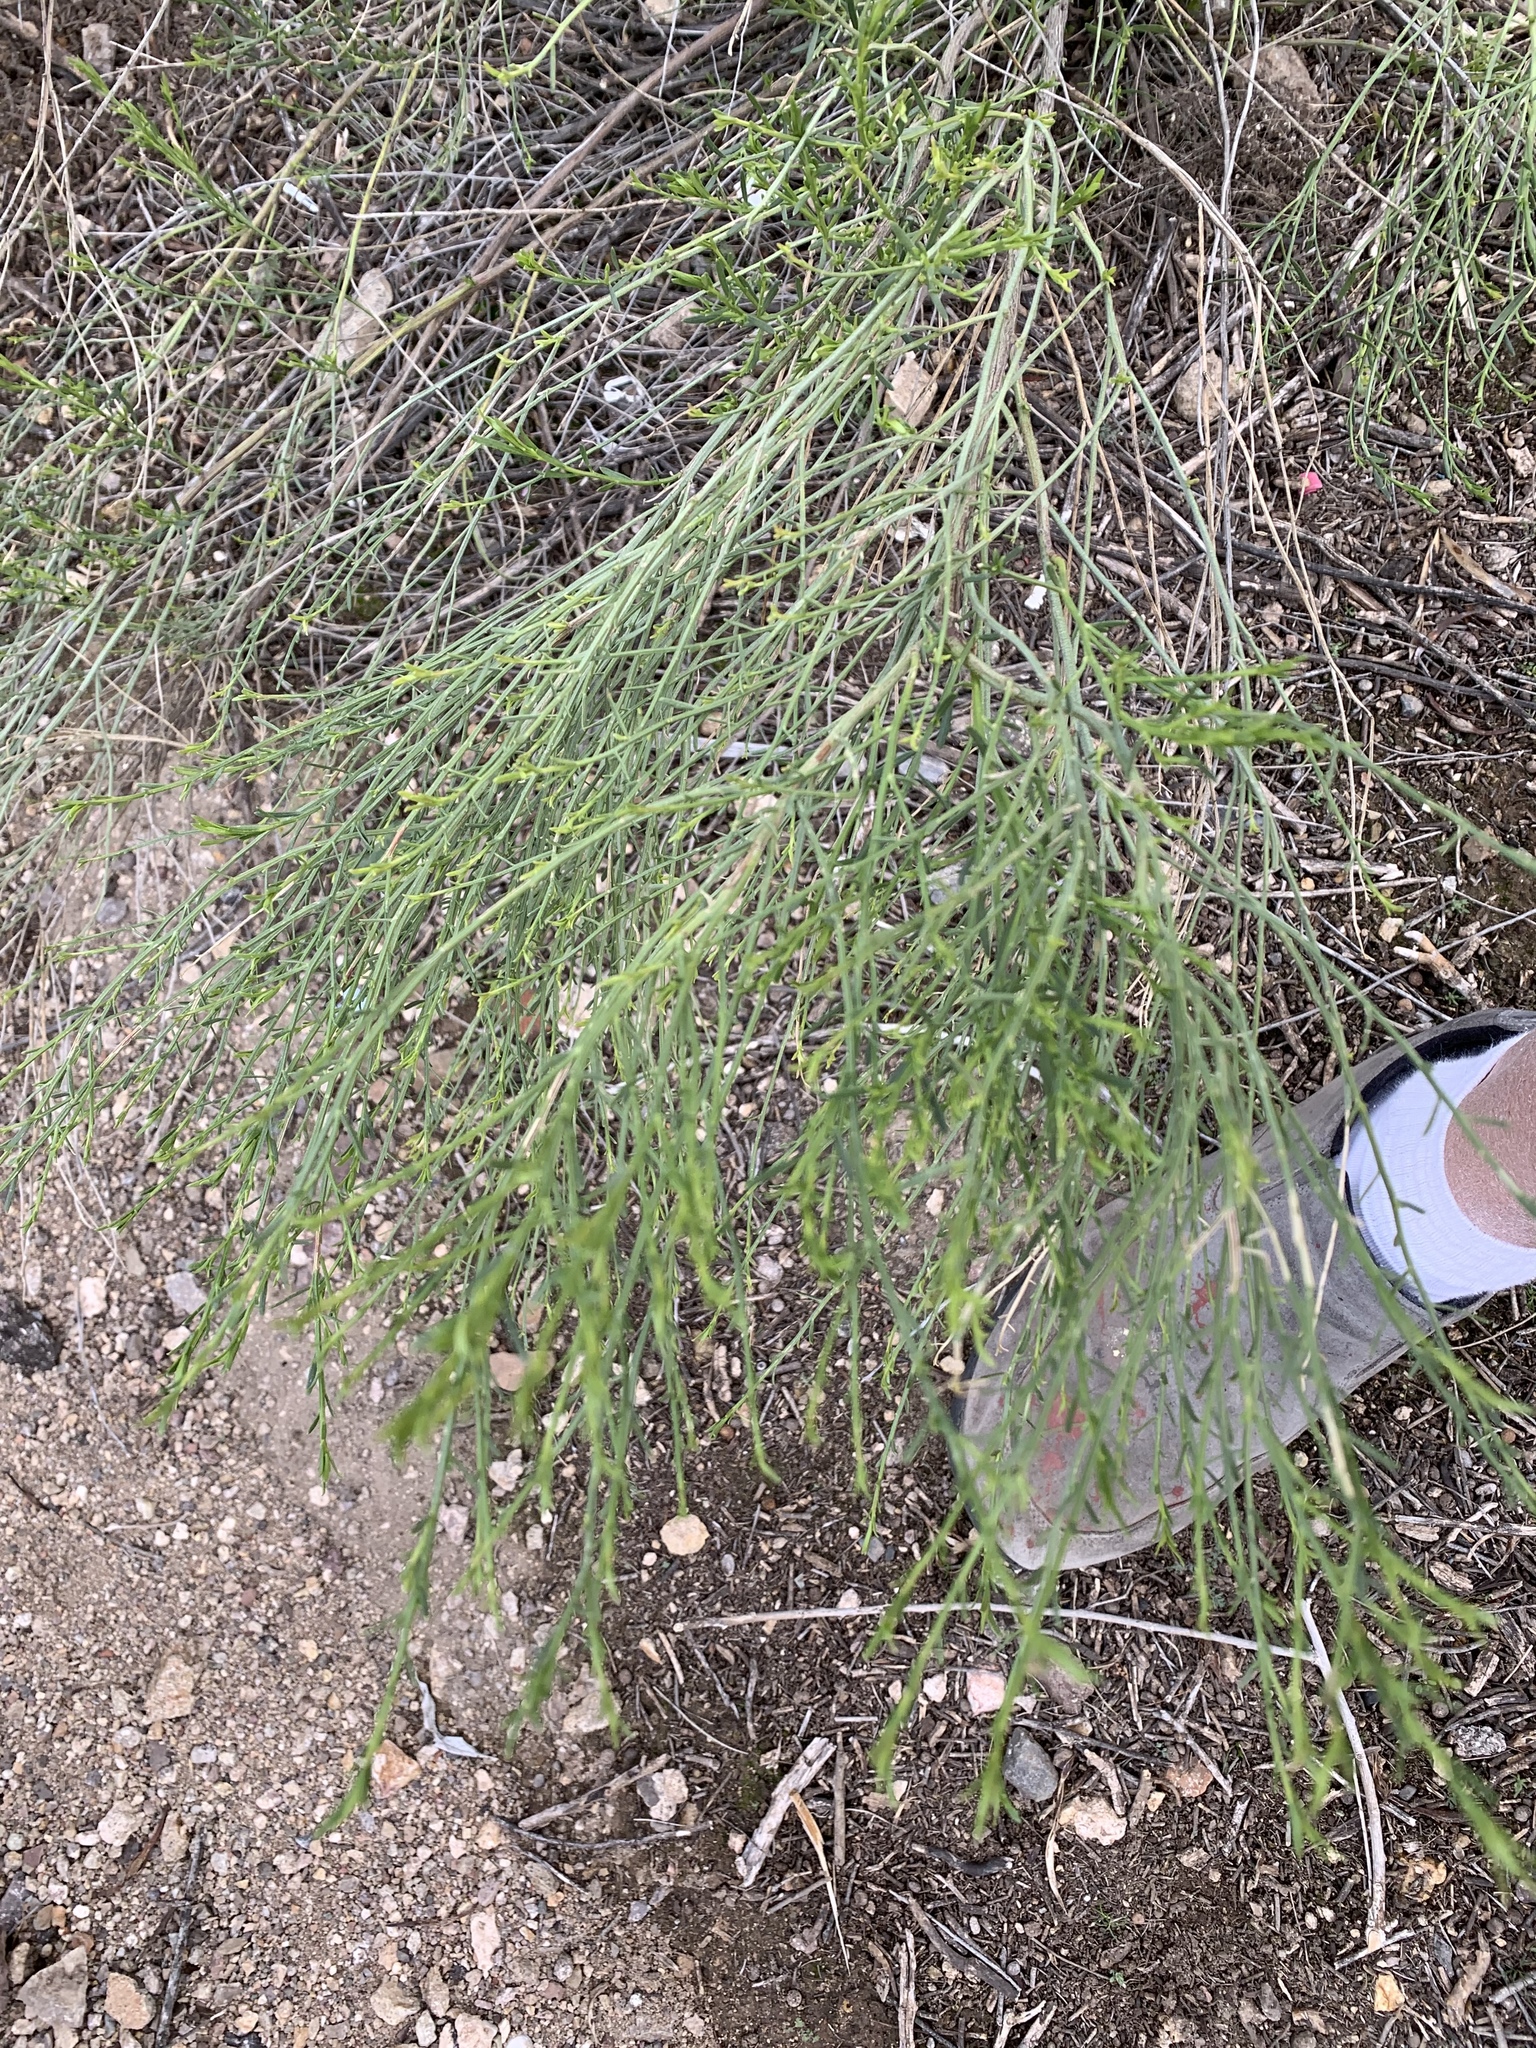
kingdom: Plantae
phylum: Tracheophyta
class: Magnoliopsida
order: Asterales
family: Asteraceae
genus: Baccharis
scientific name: Baccharis sarothroides
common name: Desert-broom
